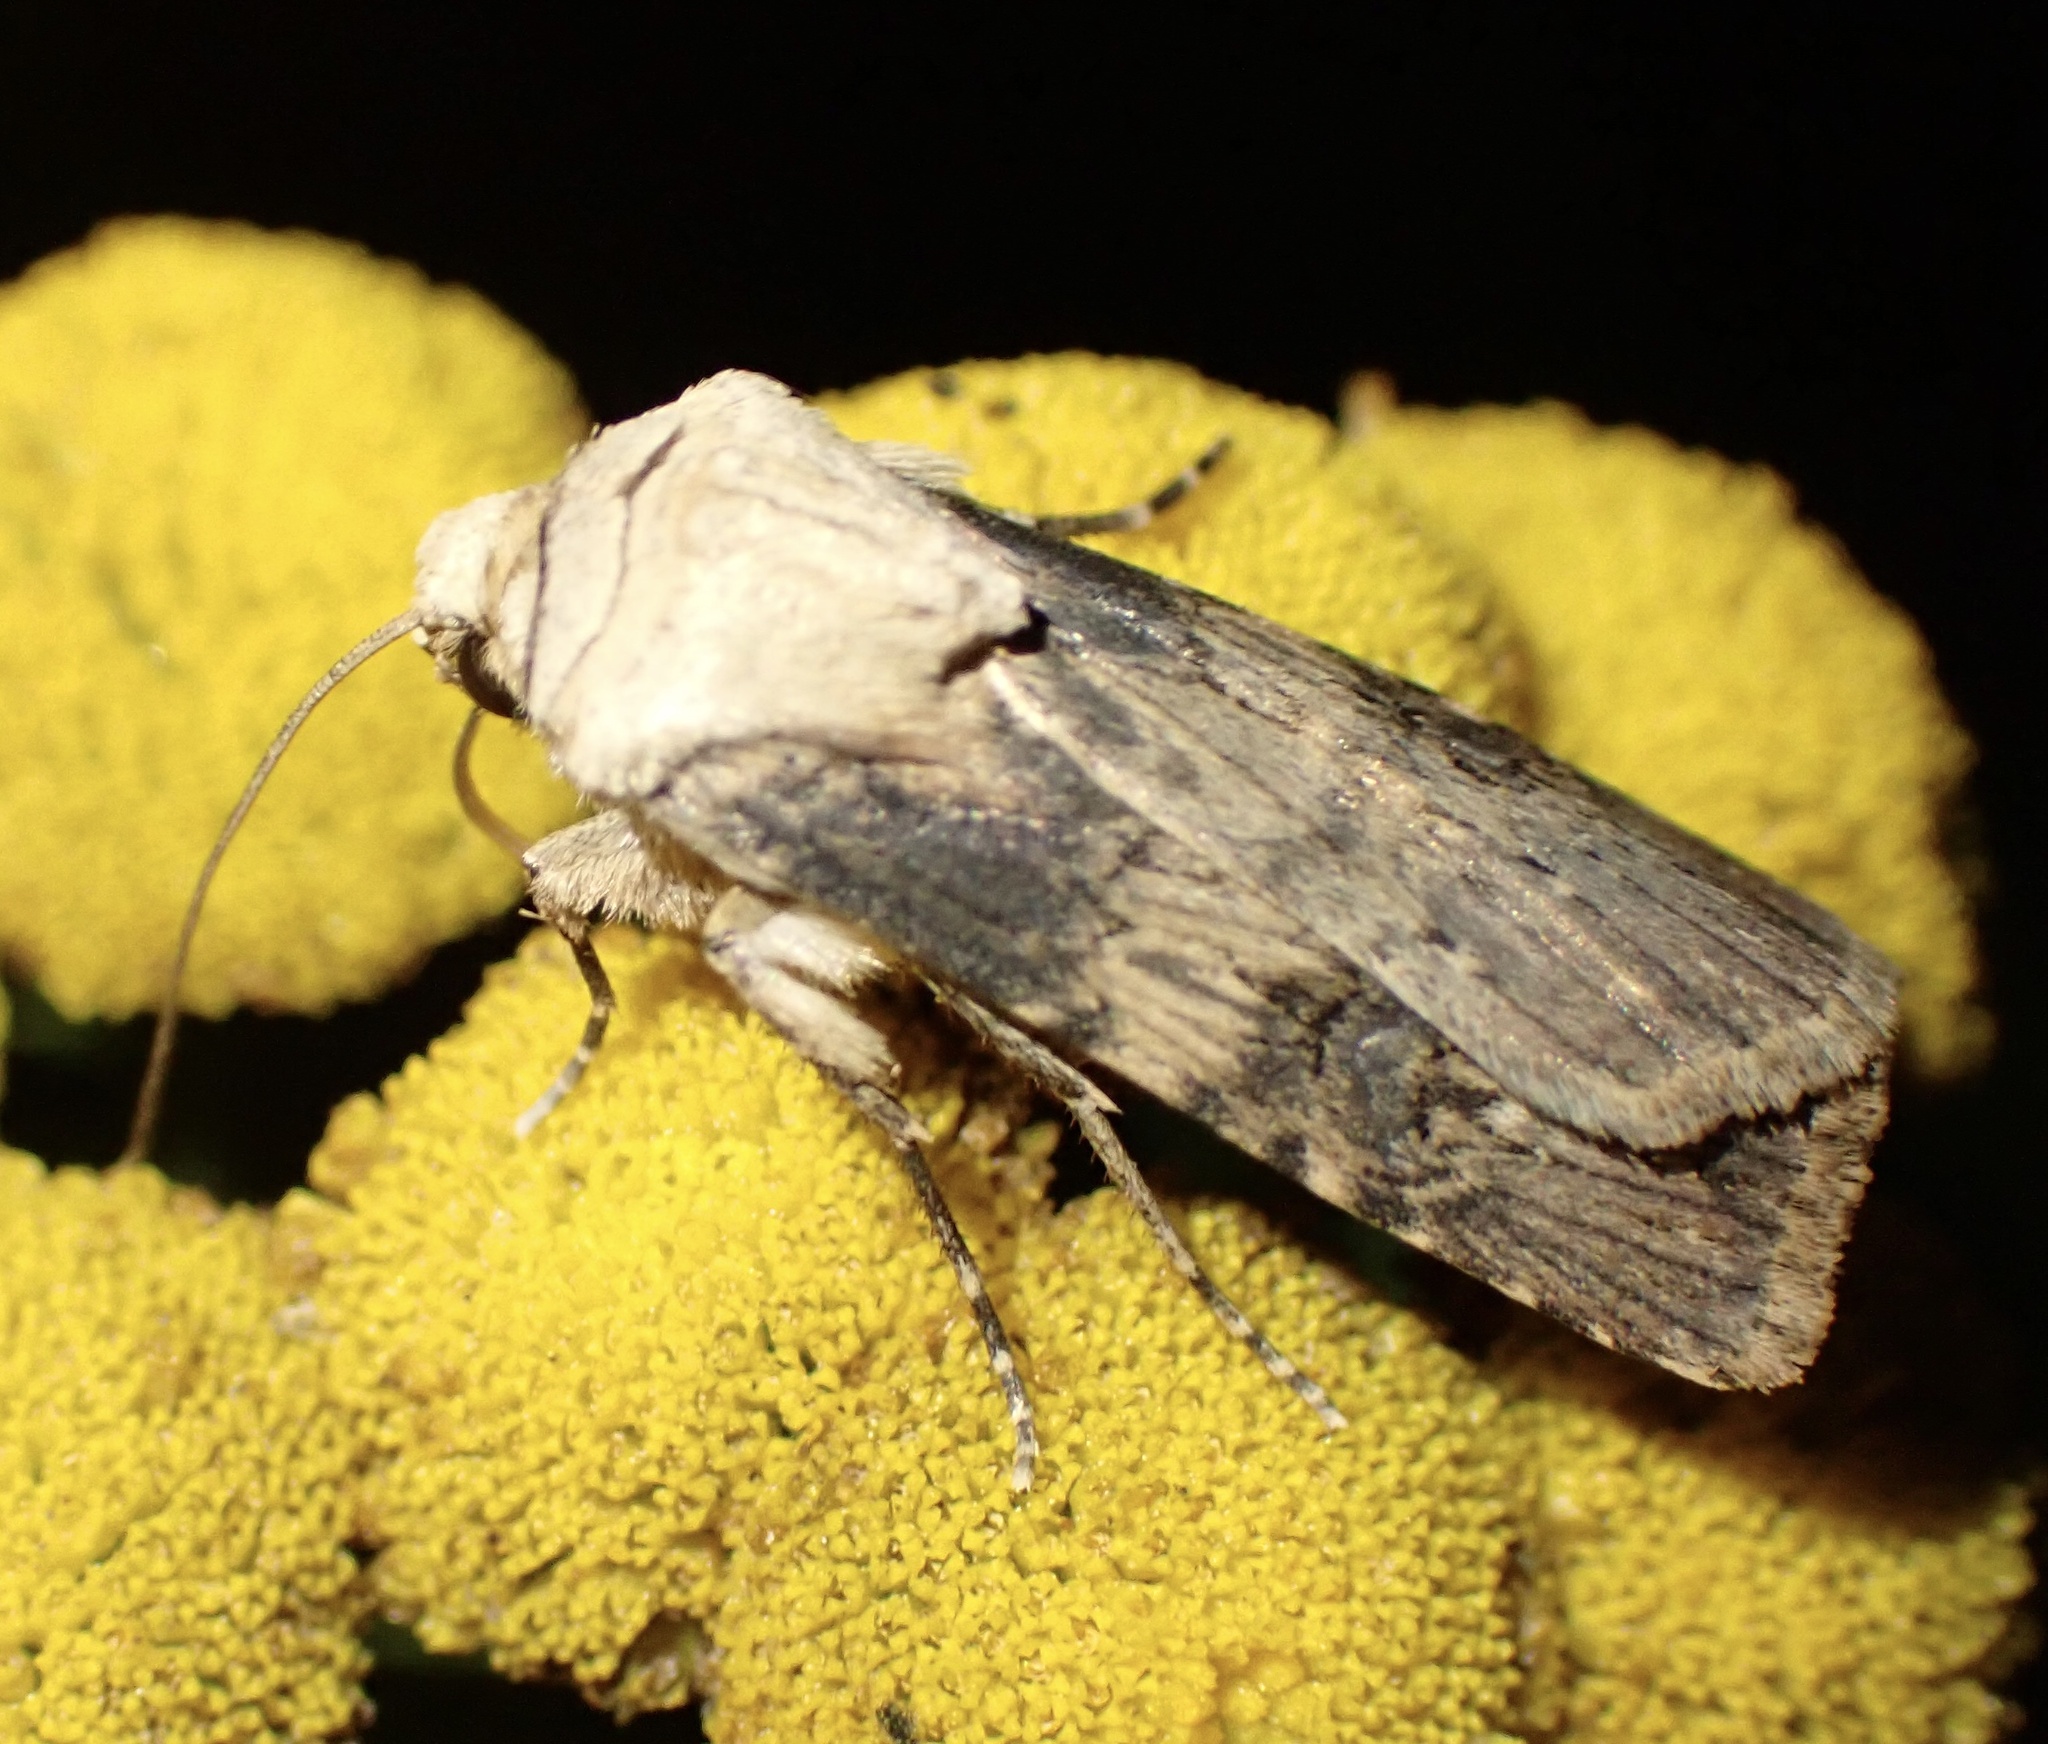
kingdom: Animalia
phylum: Arthropoda
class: Insecta
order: Lepidoptera
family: Noctuidae
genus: Agrotis
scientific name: Agrotis puta
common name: Shuttle-shaped dart
